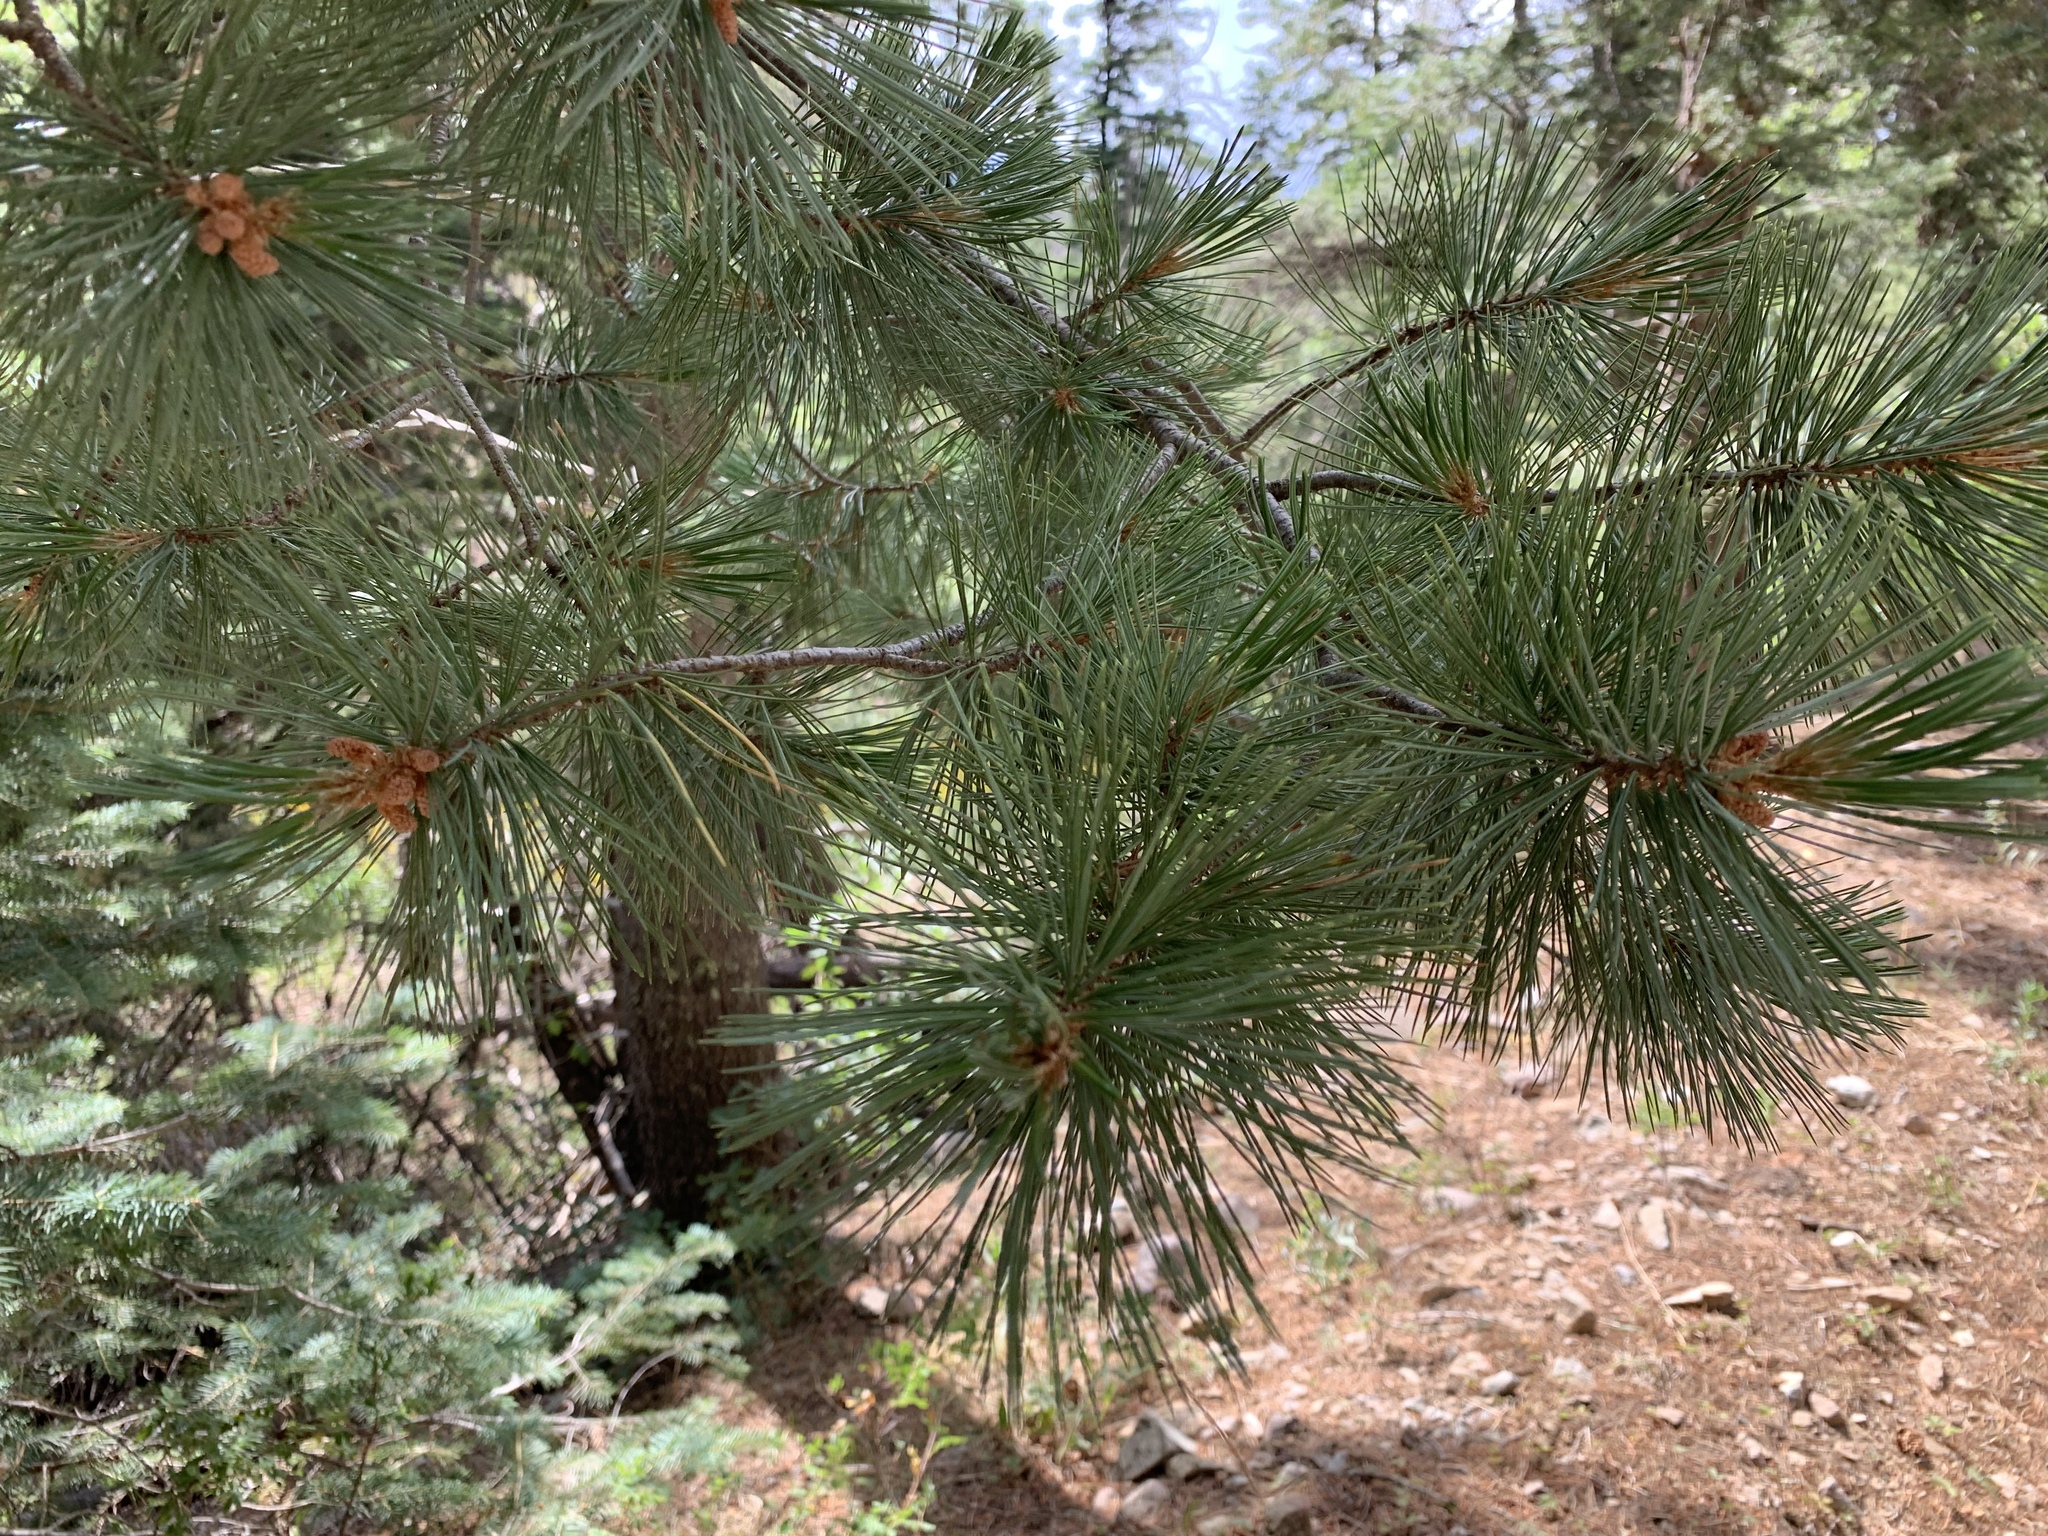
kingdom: Plantae
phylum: Tracheophyta
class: Pinopsida
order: Pinales
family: Pinaceae
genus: Pinus
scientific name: Pinus strobiformis
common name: Southwestern white pine
